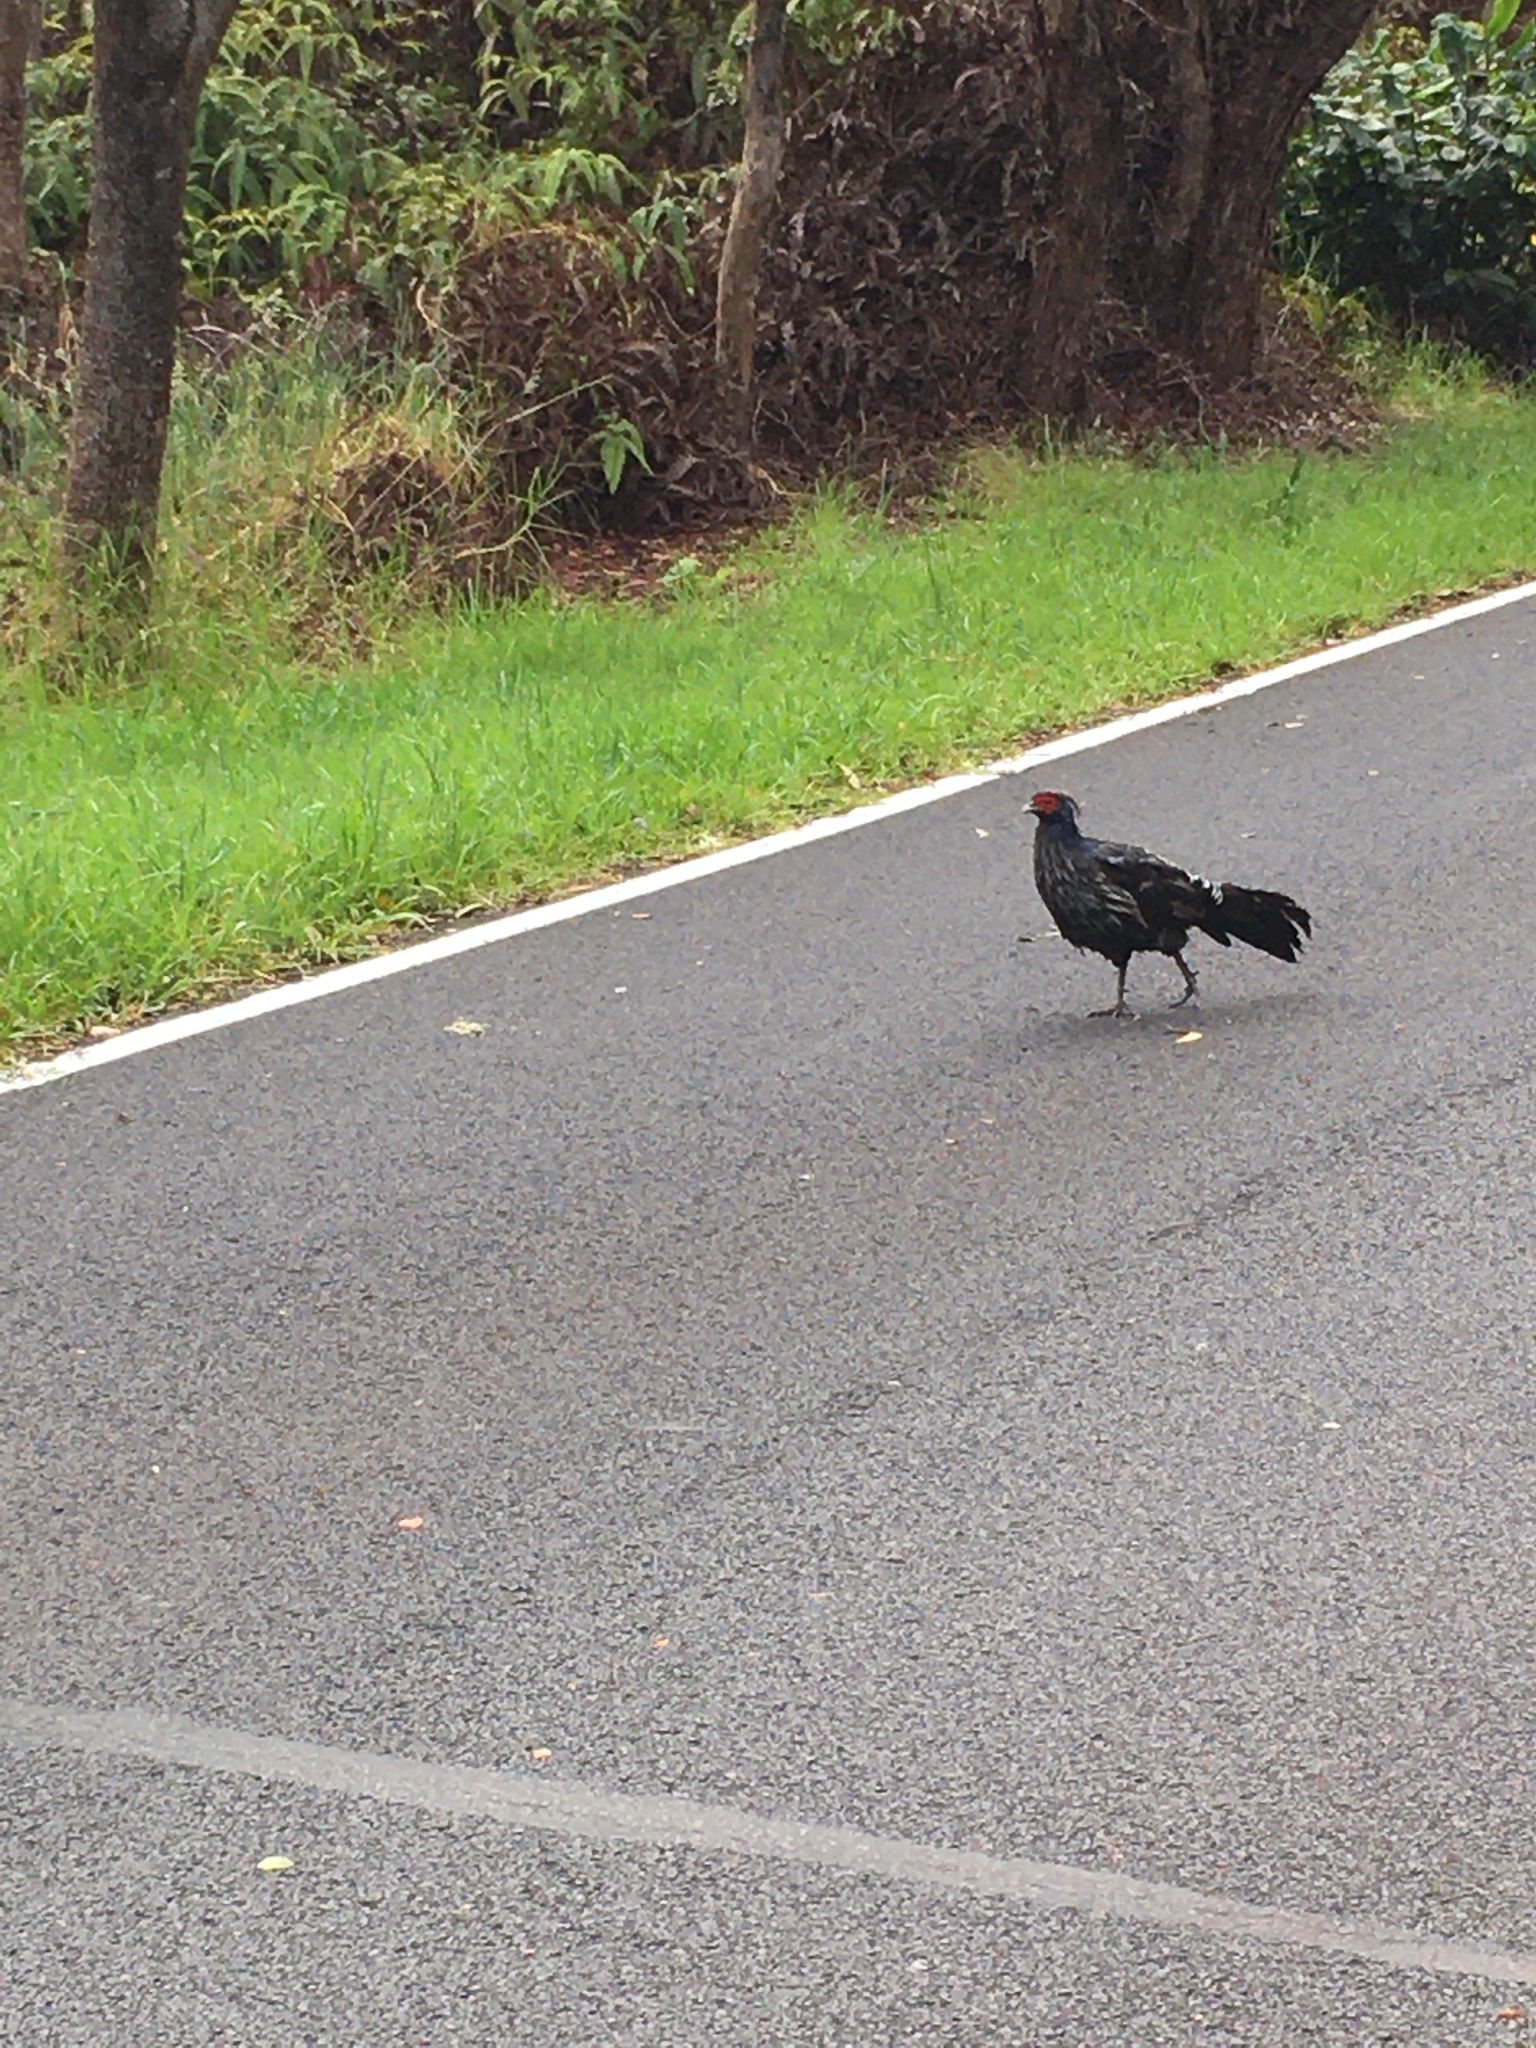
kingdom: Animalia
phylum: Chordata
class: Aves
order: Galliformes
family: Phasianidae
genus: Lophura
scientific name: Lophura leucomelanos
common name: Kalij pheasant
